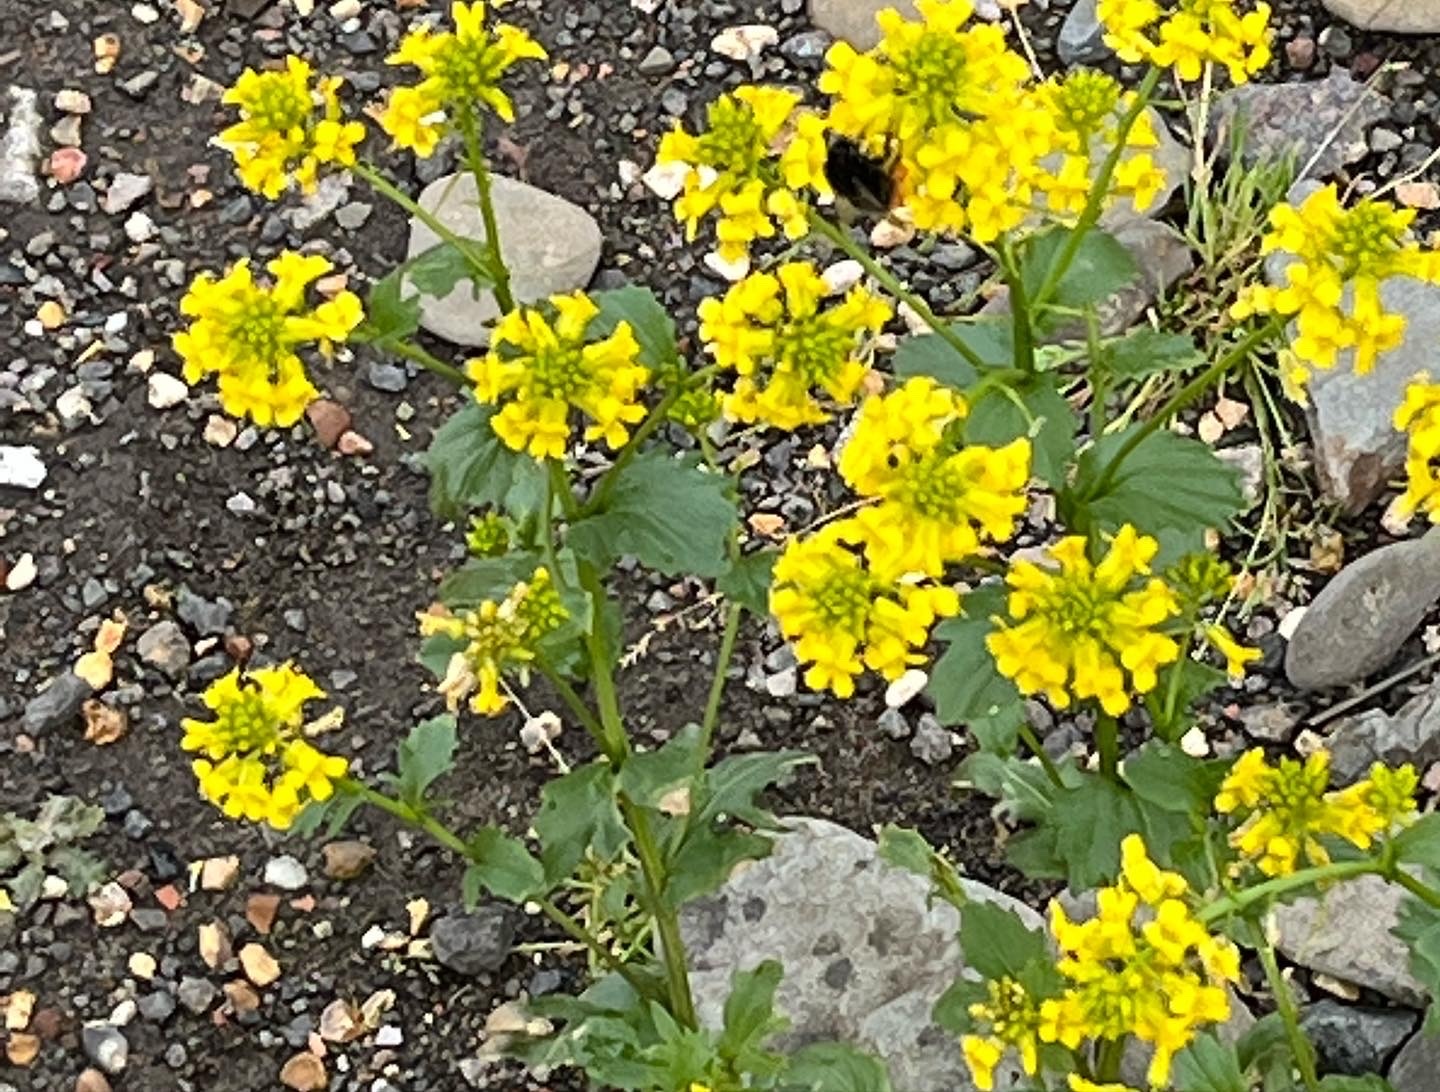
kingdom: Plantae
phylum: Tracheophyta
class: Magnoliopsida
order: Brassicales
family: Brassicaceae
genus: Barbarea
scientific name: Barbarea vulgaris
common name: Cressy-greens
